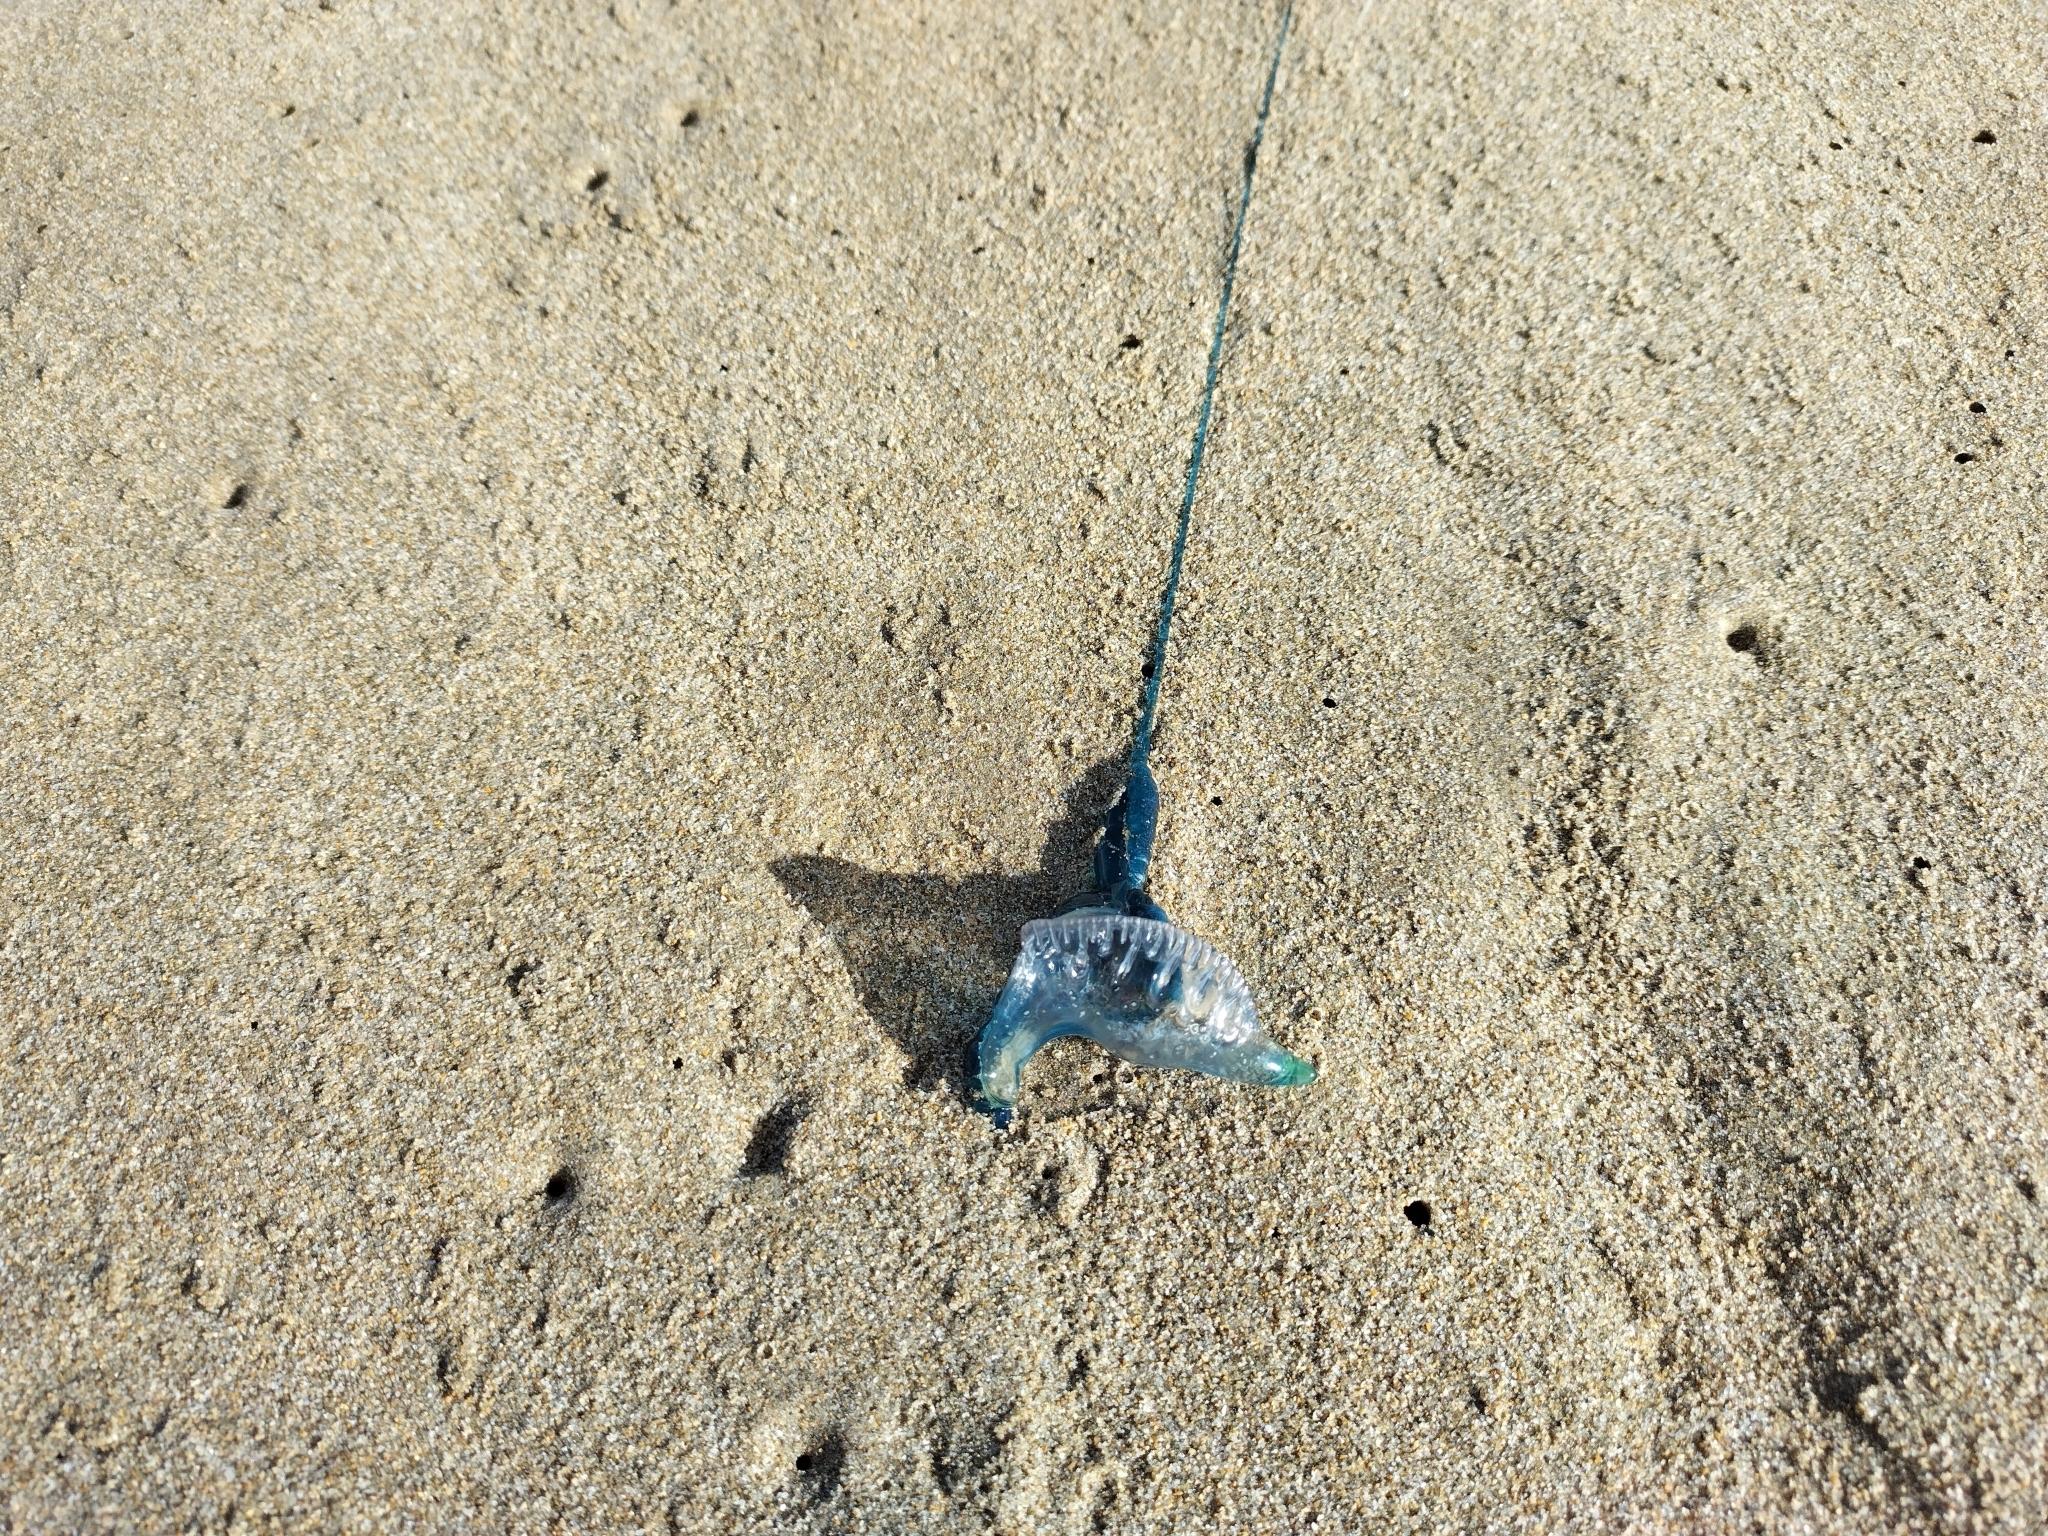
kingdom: Animalia
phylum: Cnidaria
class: Hydrozoa
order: Siphonophorae
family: Physaliidae
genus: Physalia
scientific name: Physalia physalis
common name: Portuguese man-of-war
